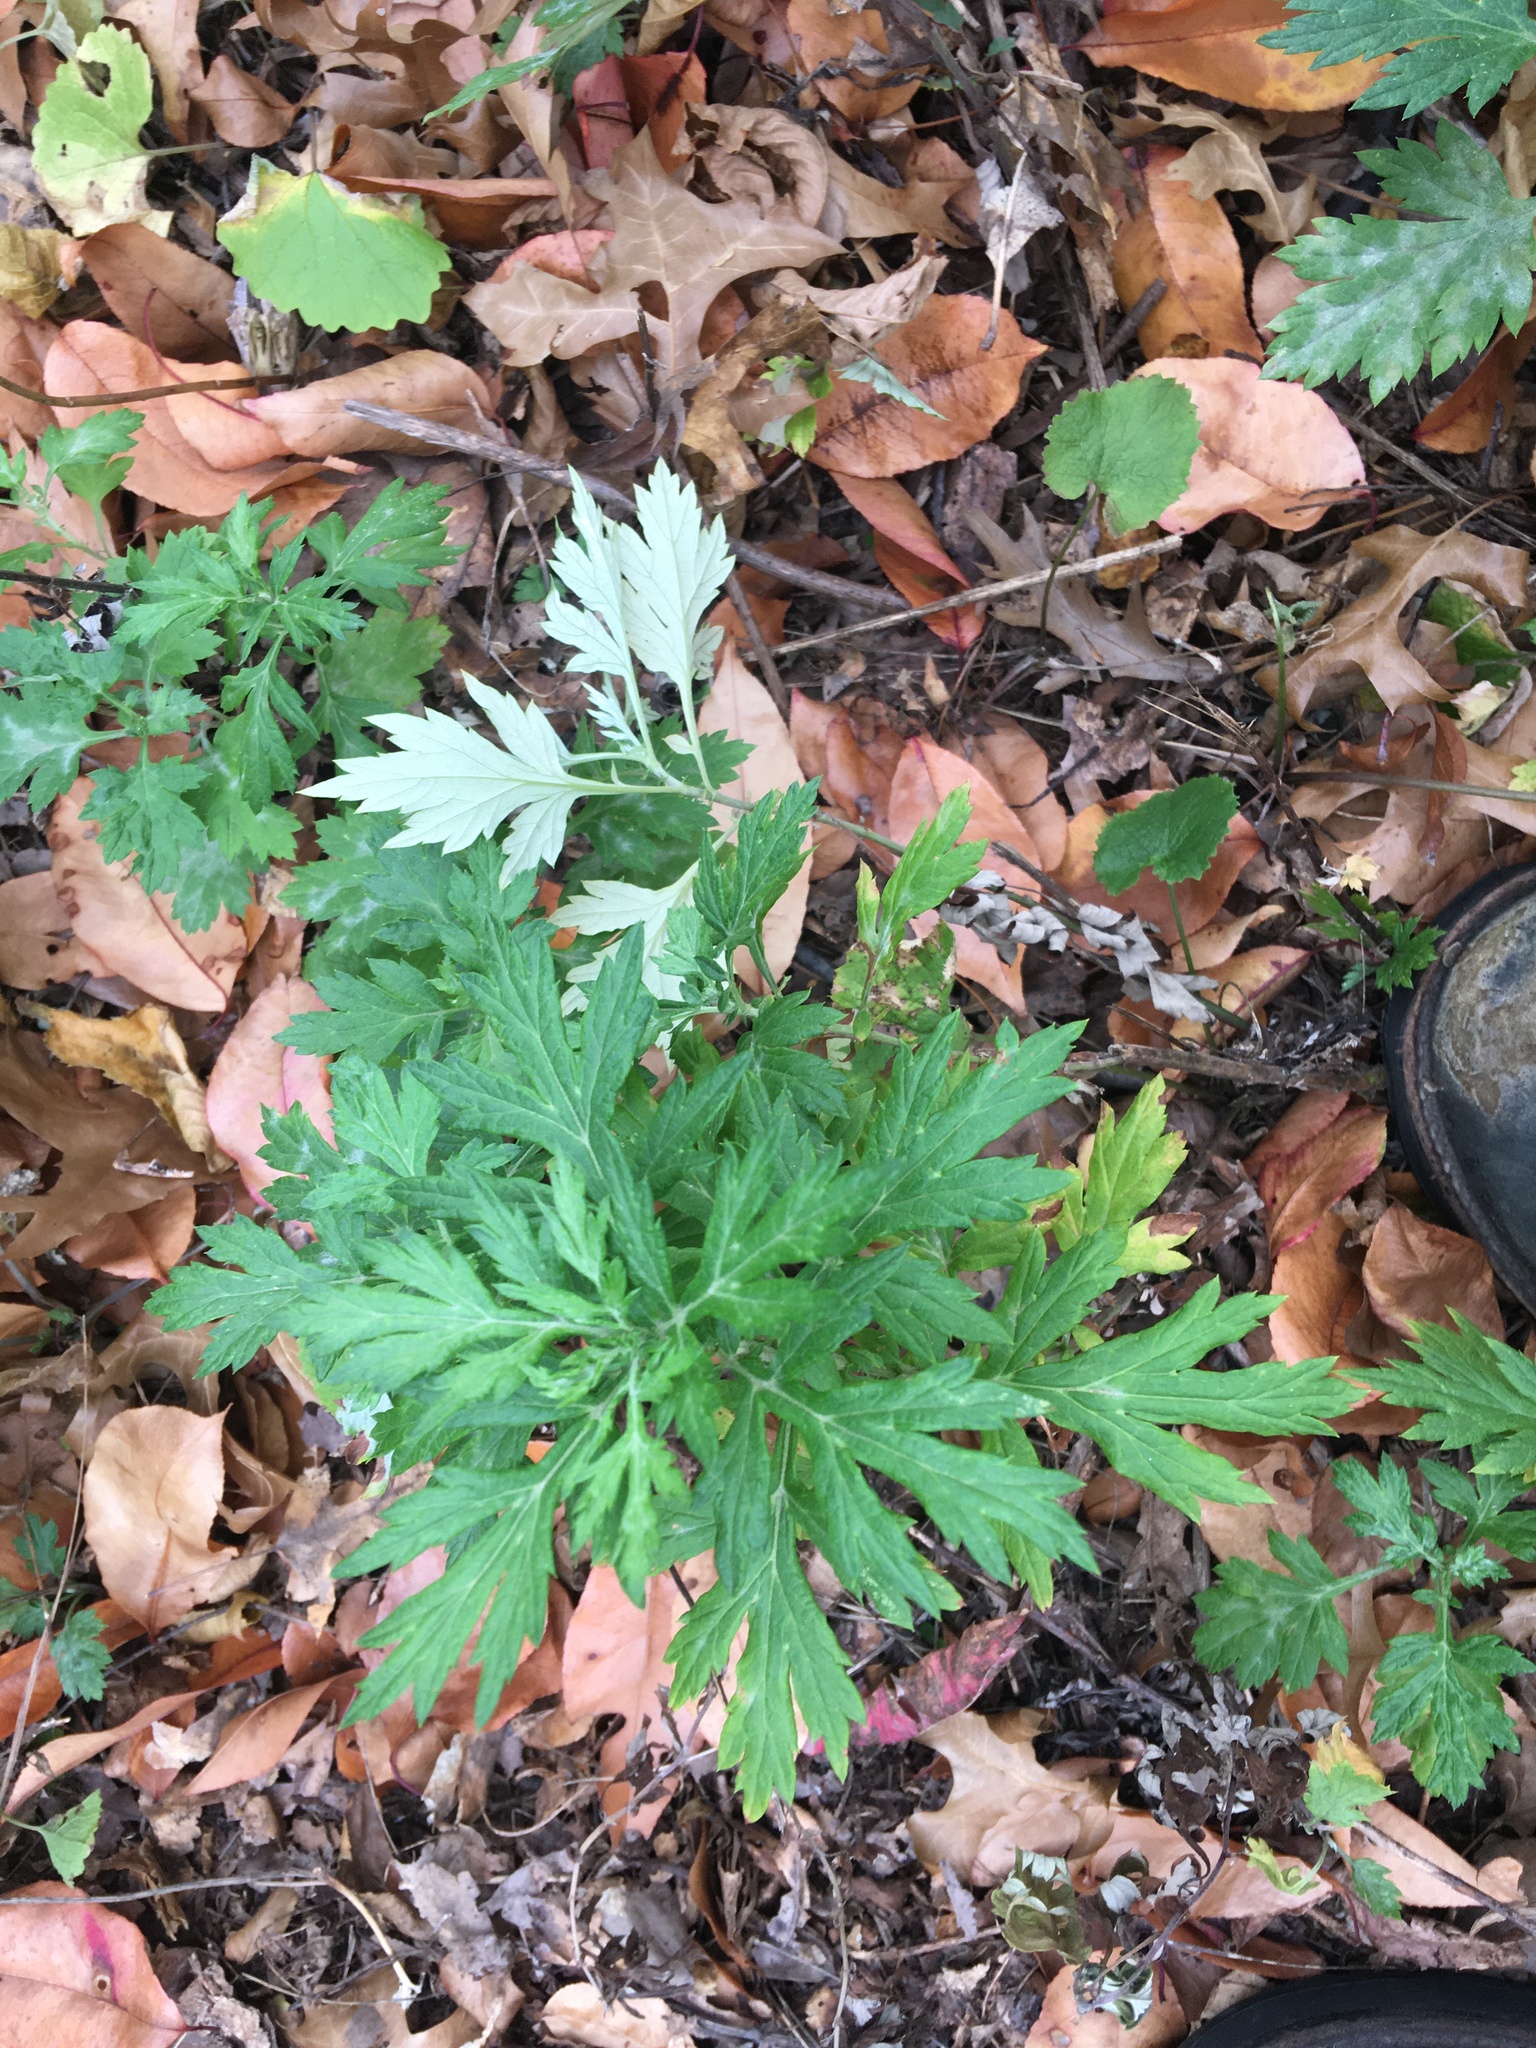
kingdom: Plantae
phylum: Tracheophyta
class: Magnoliopsida
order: Asterales
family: Asteraceae
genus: Artemisia
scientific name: Artemisia vulgaris
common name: Mugwort
